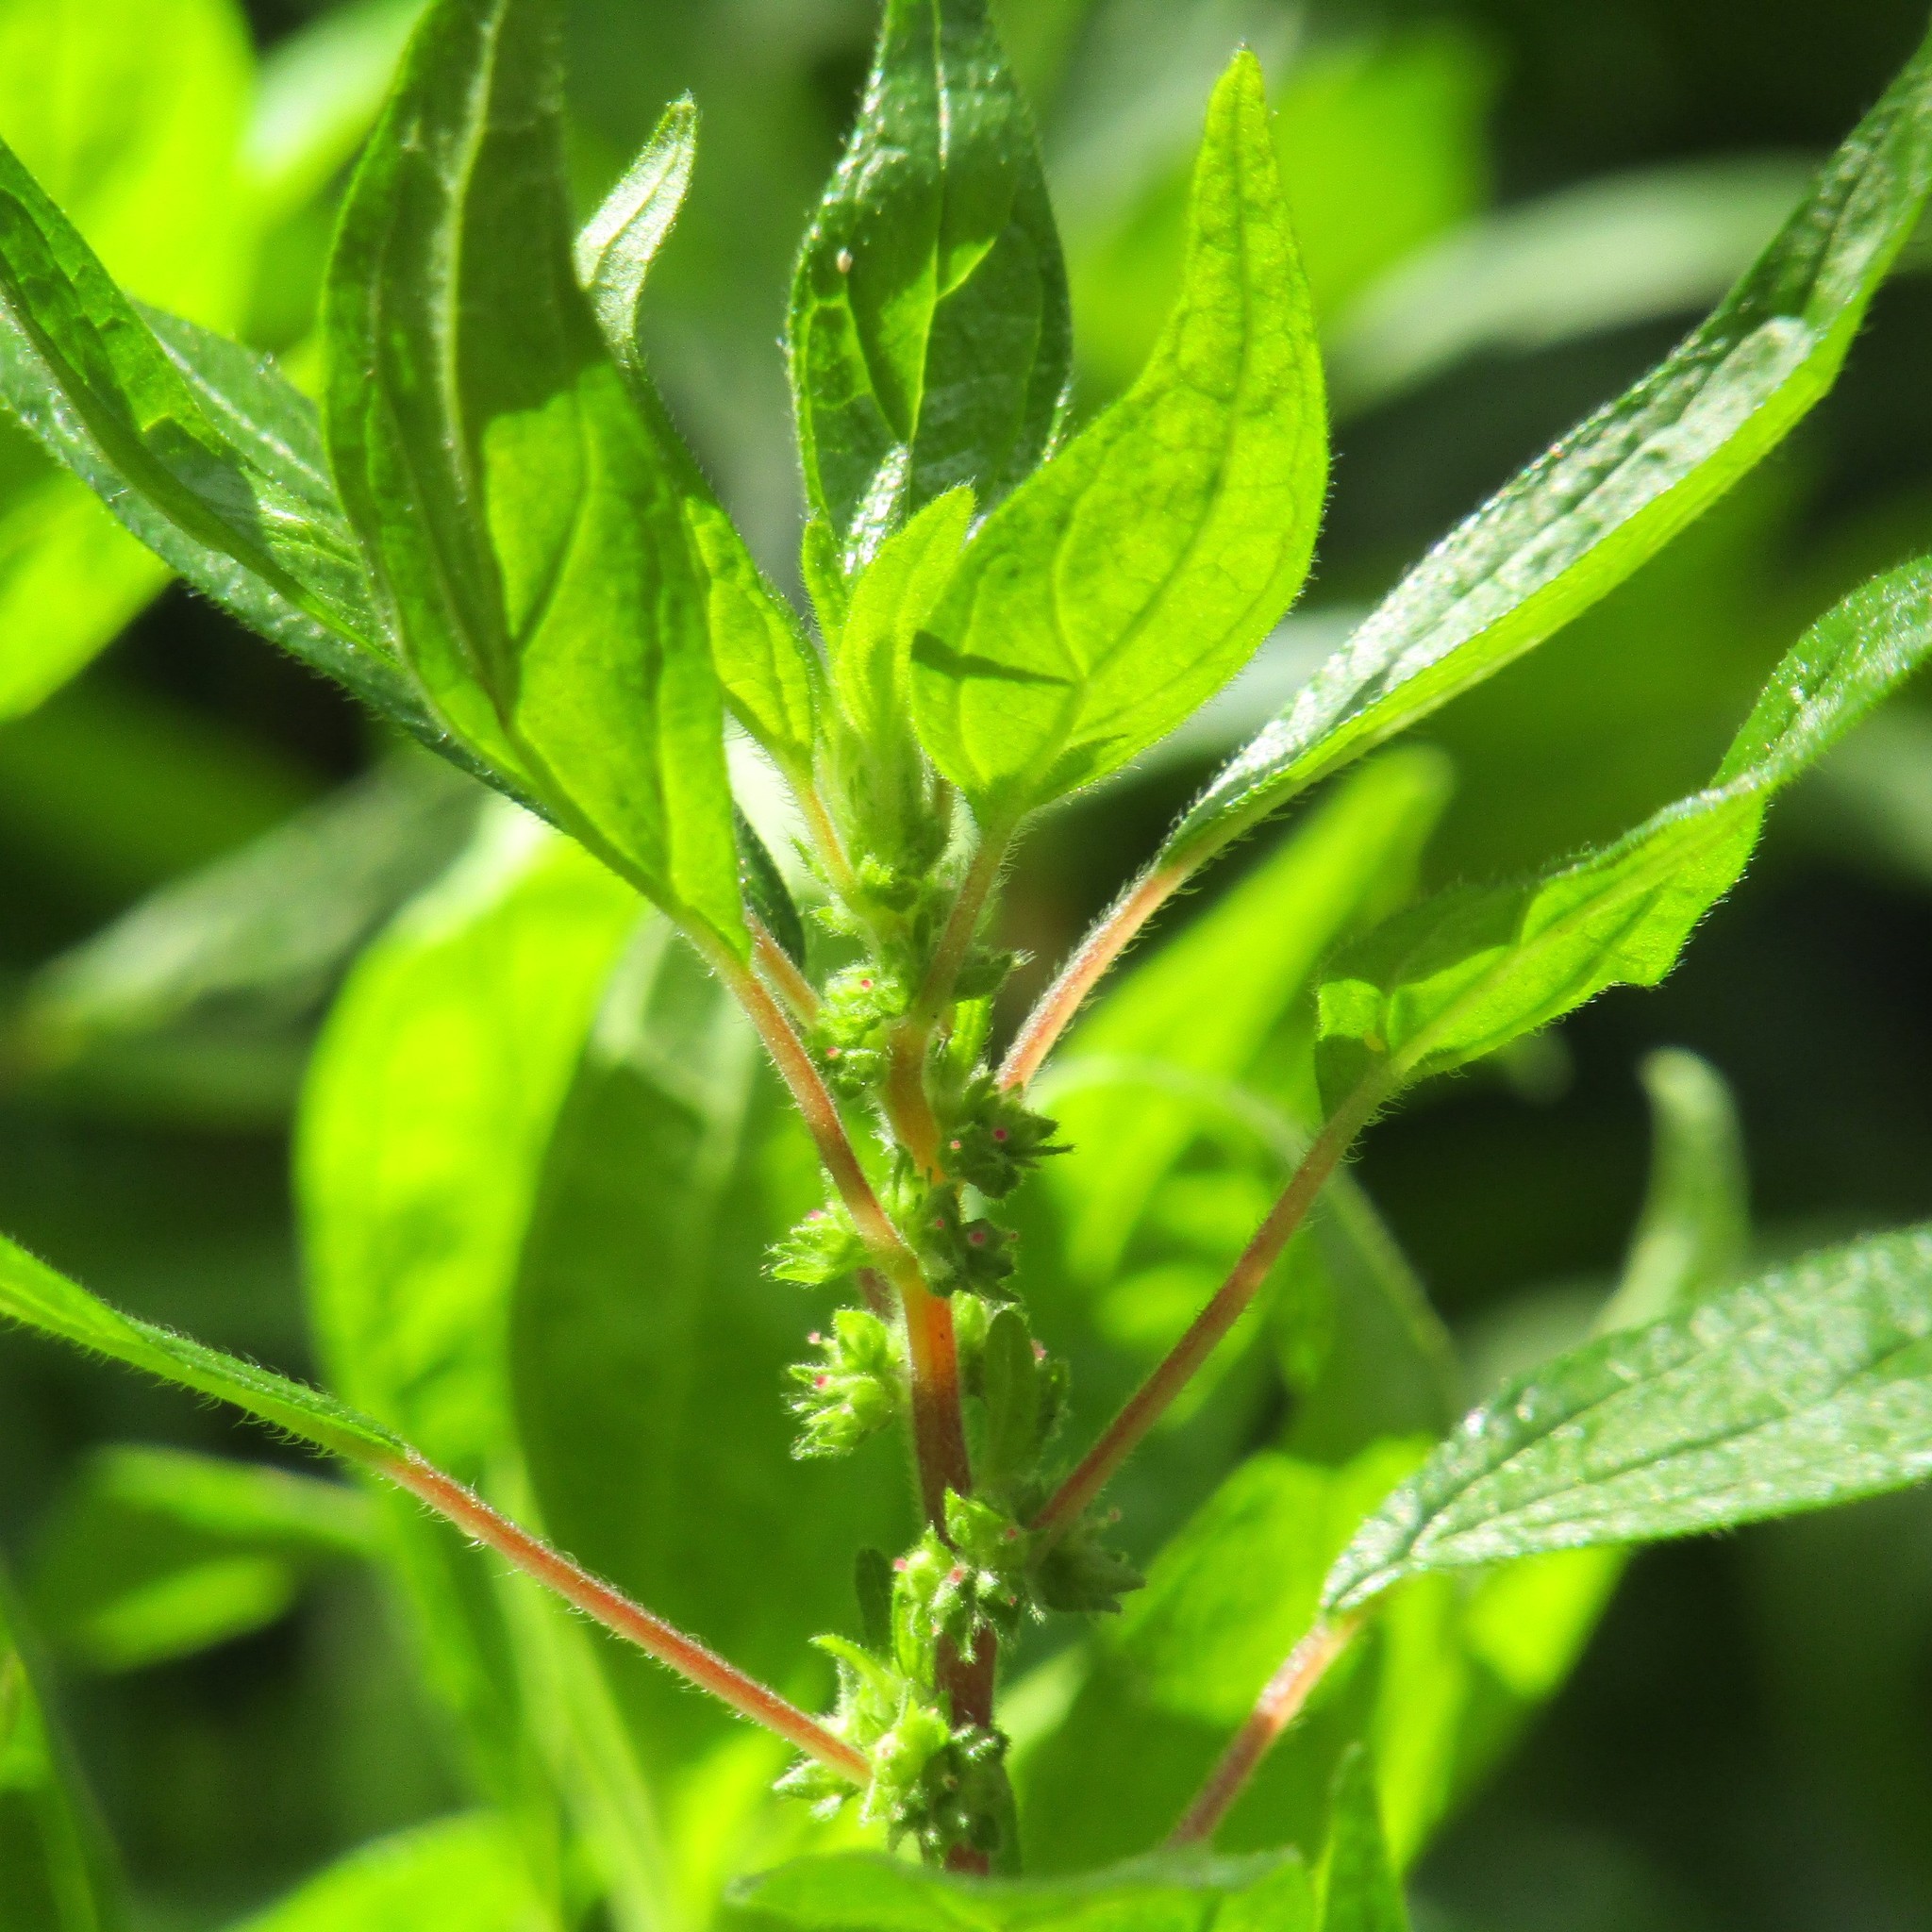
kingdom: Plantae
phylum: Tracheophyta
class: Magnoliopsida
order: Rosales
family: Urticaceae
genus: Parietaria
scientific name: Parietaria judaica
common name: Pellitory-of-the-wall
